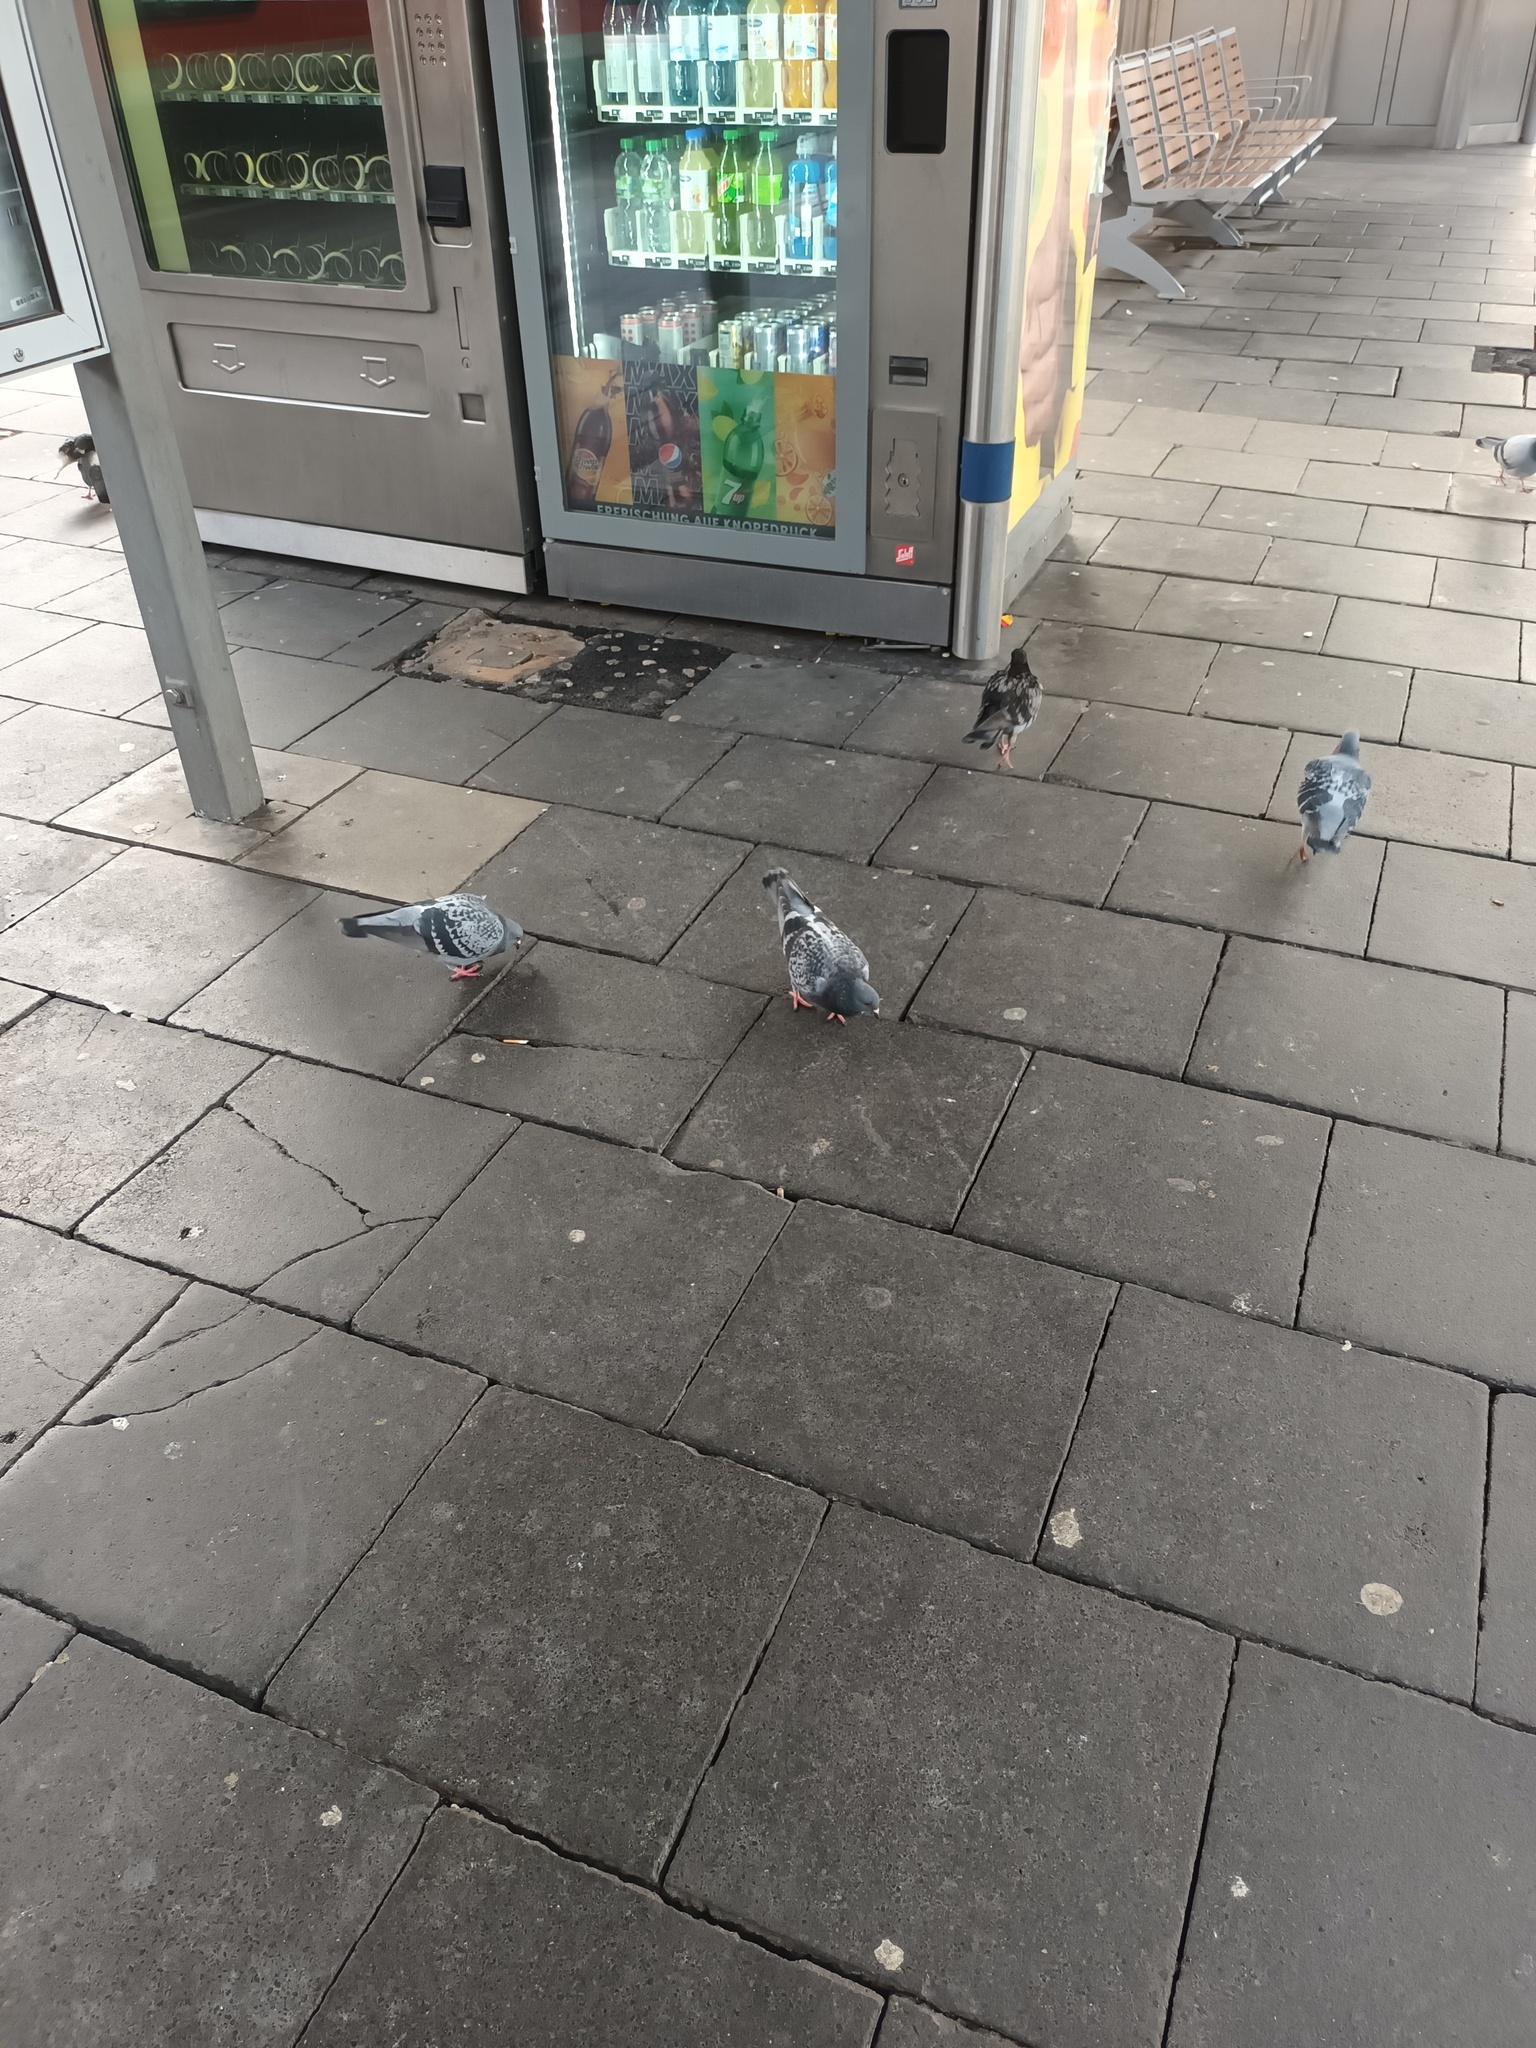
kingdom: Animalia
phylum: Chordata
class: Aves
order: Columbiformes
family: Columbidae
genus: Columba
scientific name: Columba livia
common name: Rock pigeon
